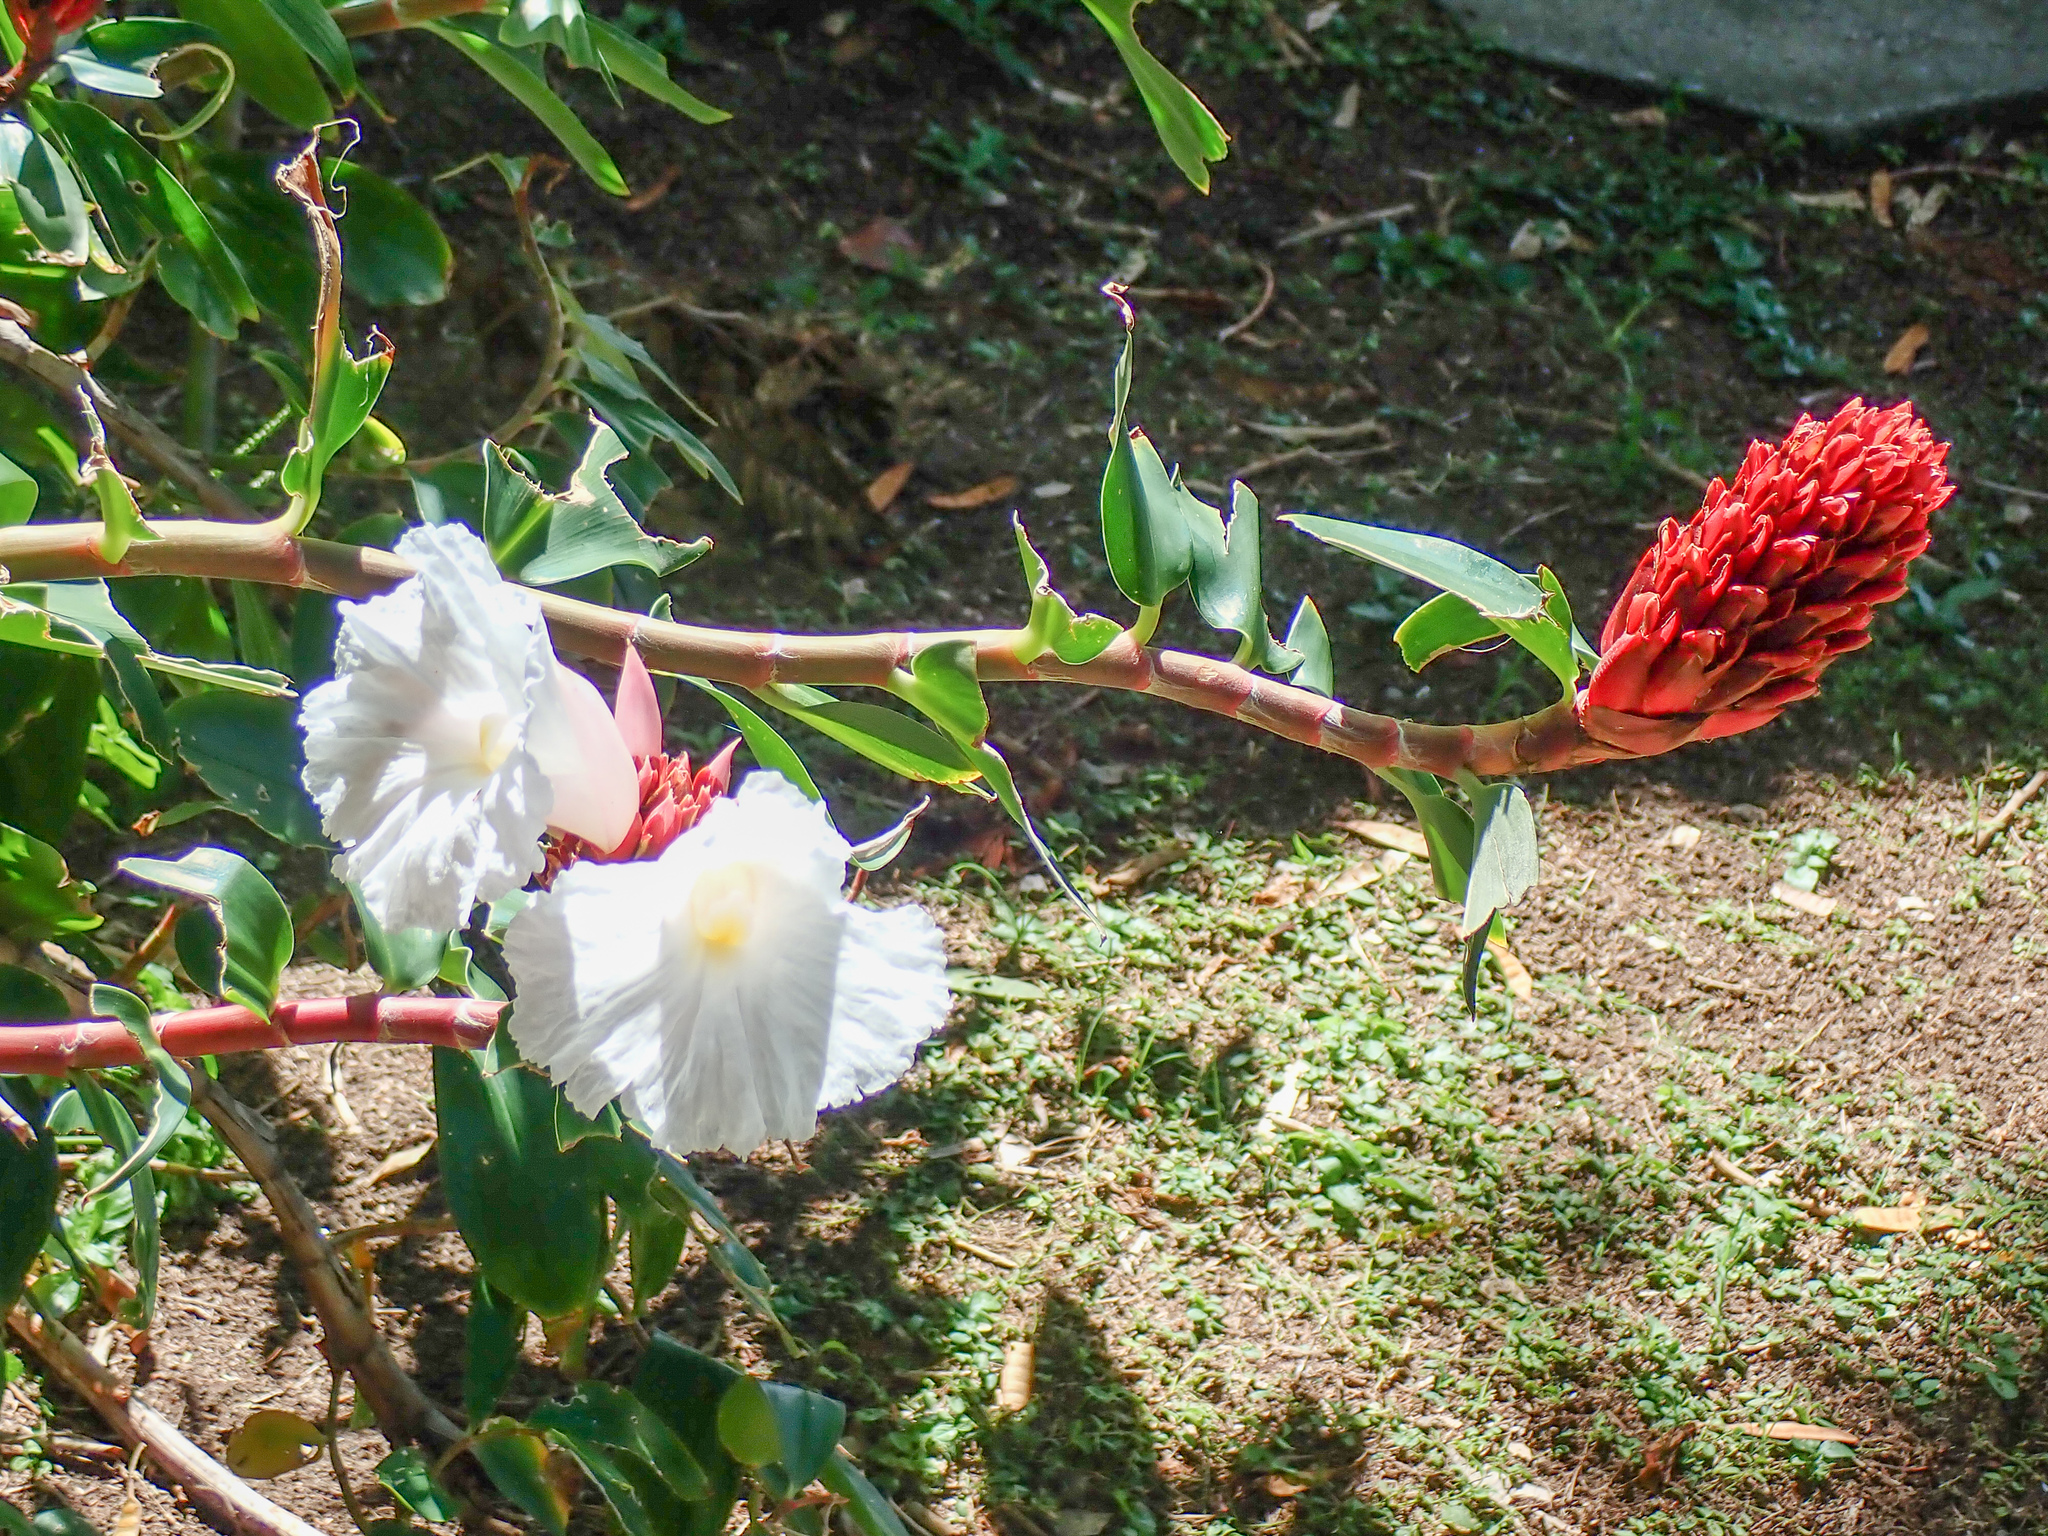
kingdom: Plantae
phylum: Tracheophyta
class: Liliopsida
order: Zingiberales
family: Costaceae
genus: Hellenia
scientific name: Hellenia speciosa
